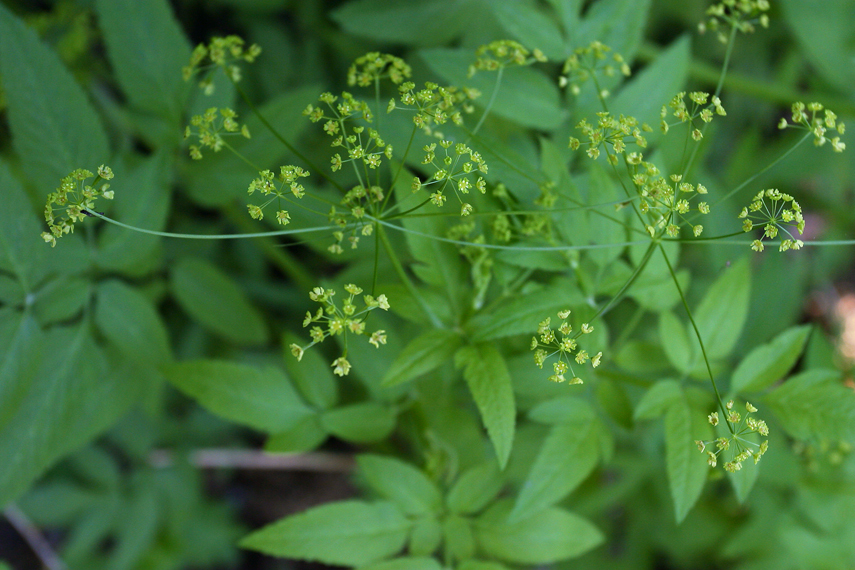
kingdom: Plantae
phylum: Tracheophyta
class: Magnoliopsida
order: Apiales
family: Apiaceae
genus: Osmorhiza
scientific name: Osmorhiza occidentalis
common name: Western sweet cicely
